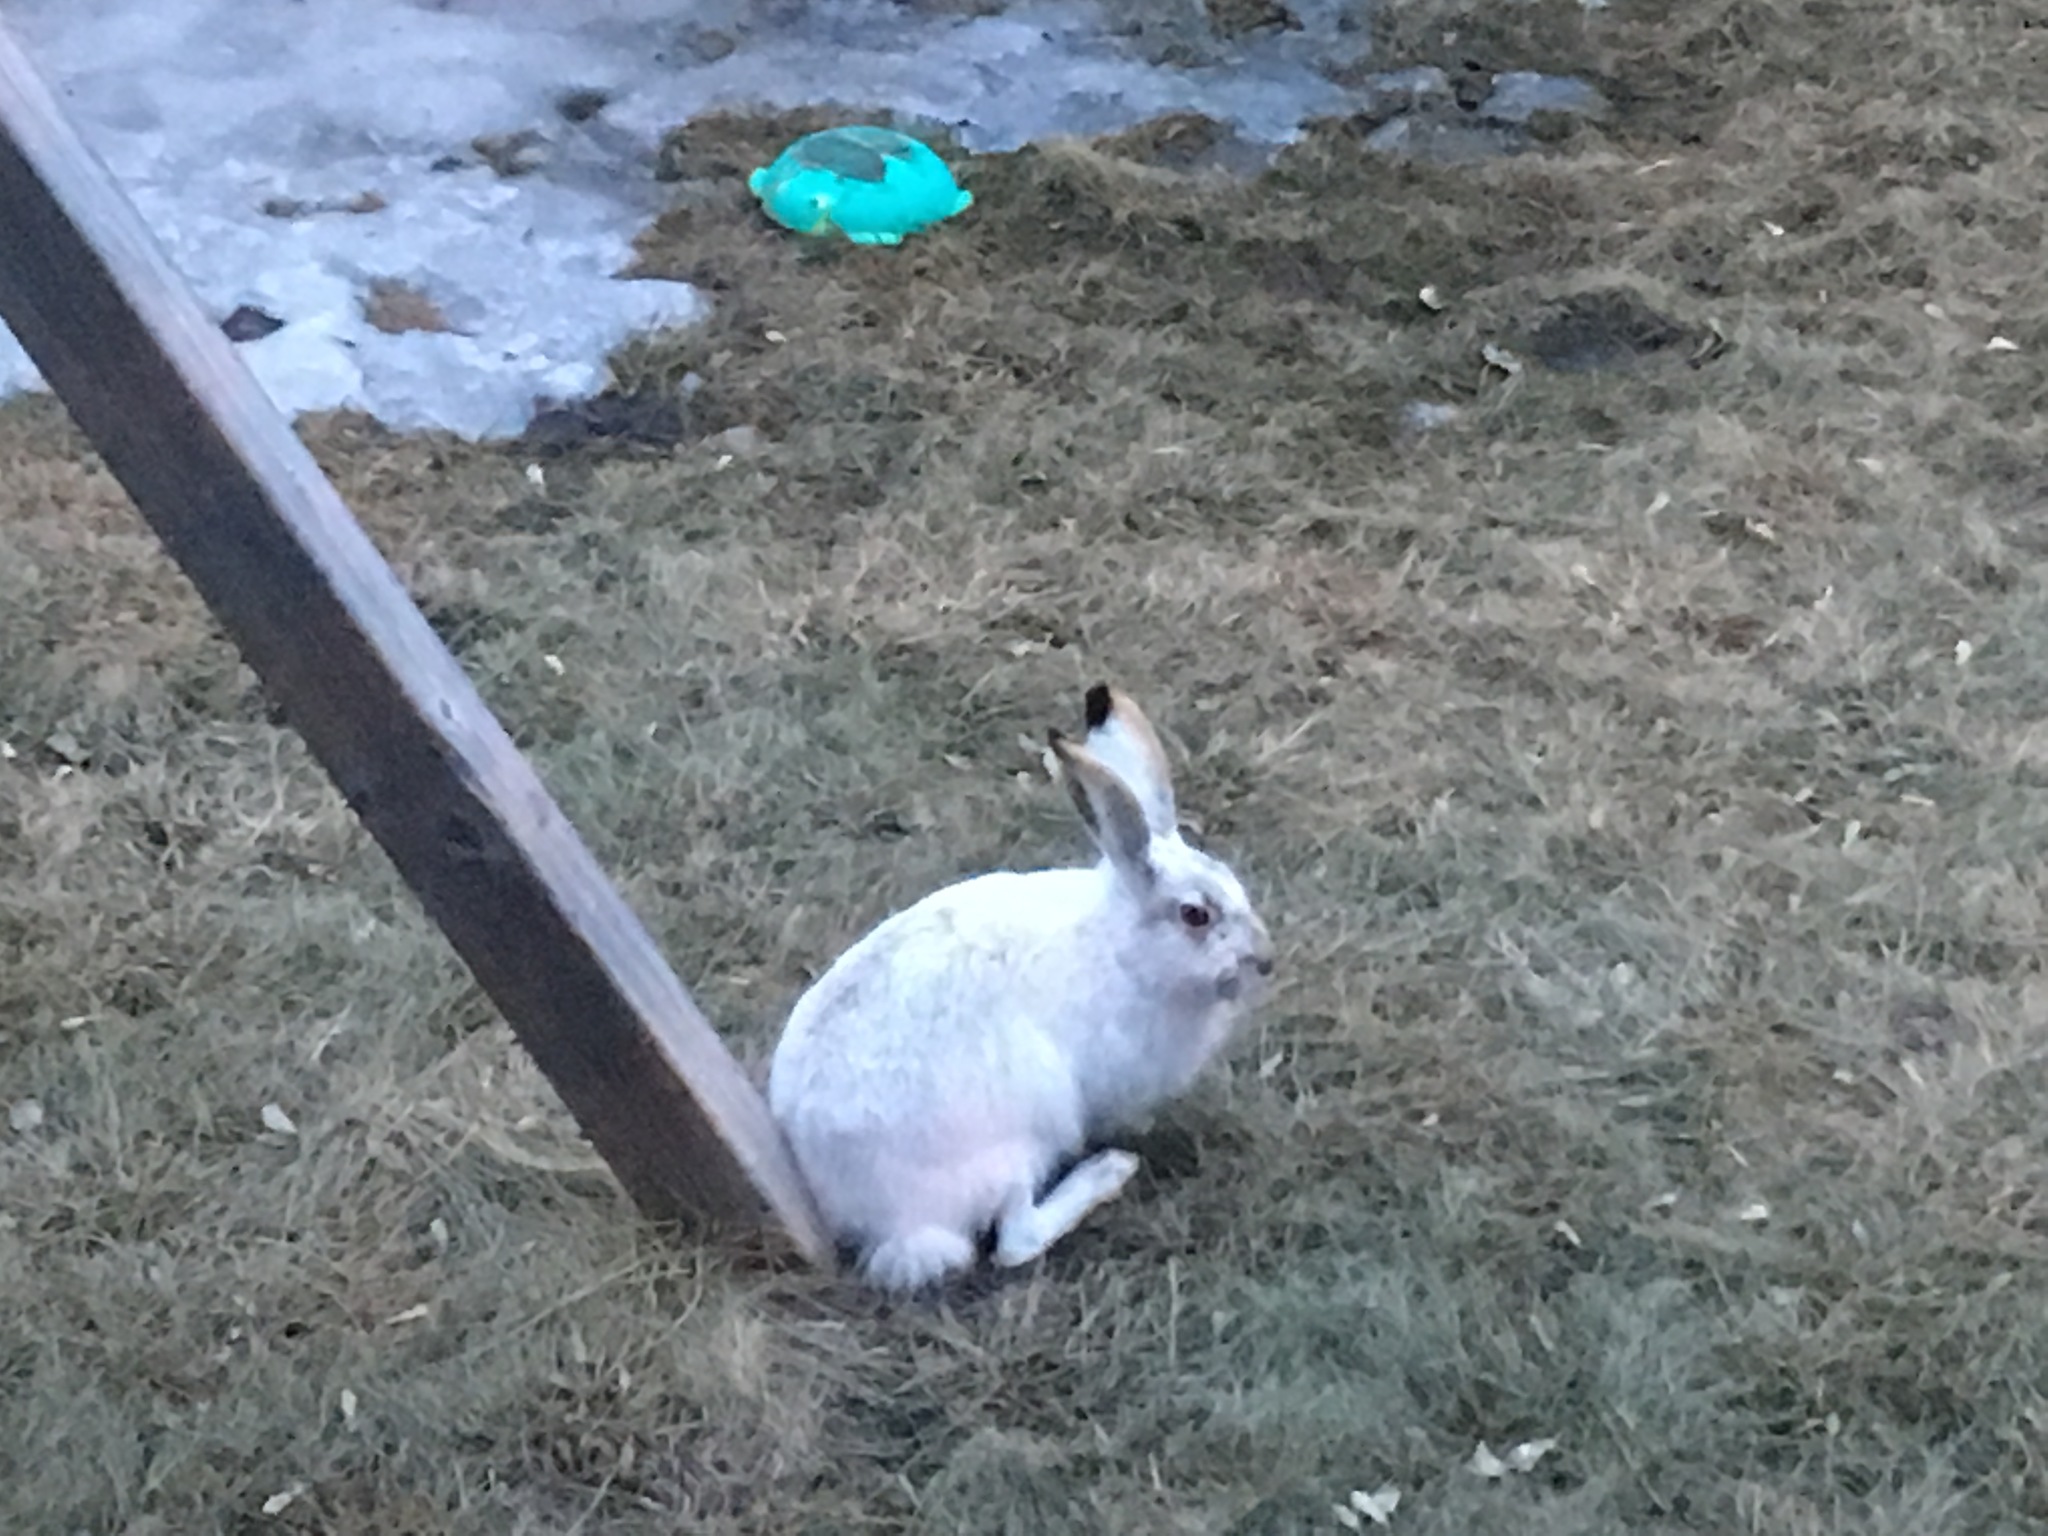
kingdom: Animalia
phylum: Chordata
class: Mammalia
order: Lagomorpha
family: Leporidae
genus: Lepus
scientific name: Lepus townsendii
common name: White-tailed jackrabbit
